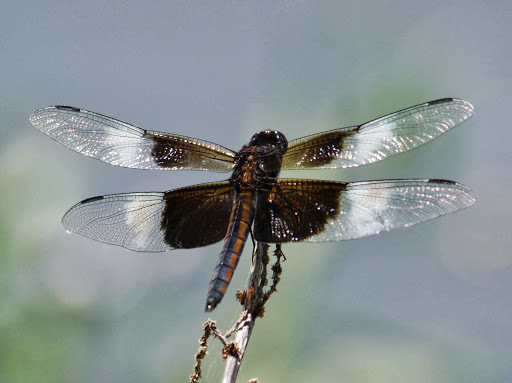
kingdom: Animalia
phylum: Arthropoda
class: Insecta
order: Odonata
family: Libellulidae
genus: Libellula
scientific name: Libellula luctuosa
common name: Widow skimmer
